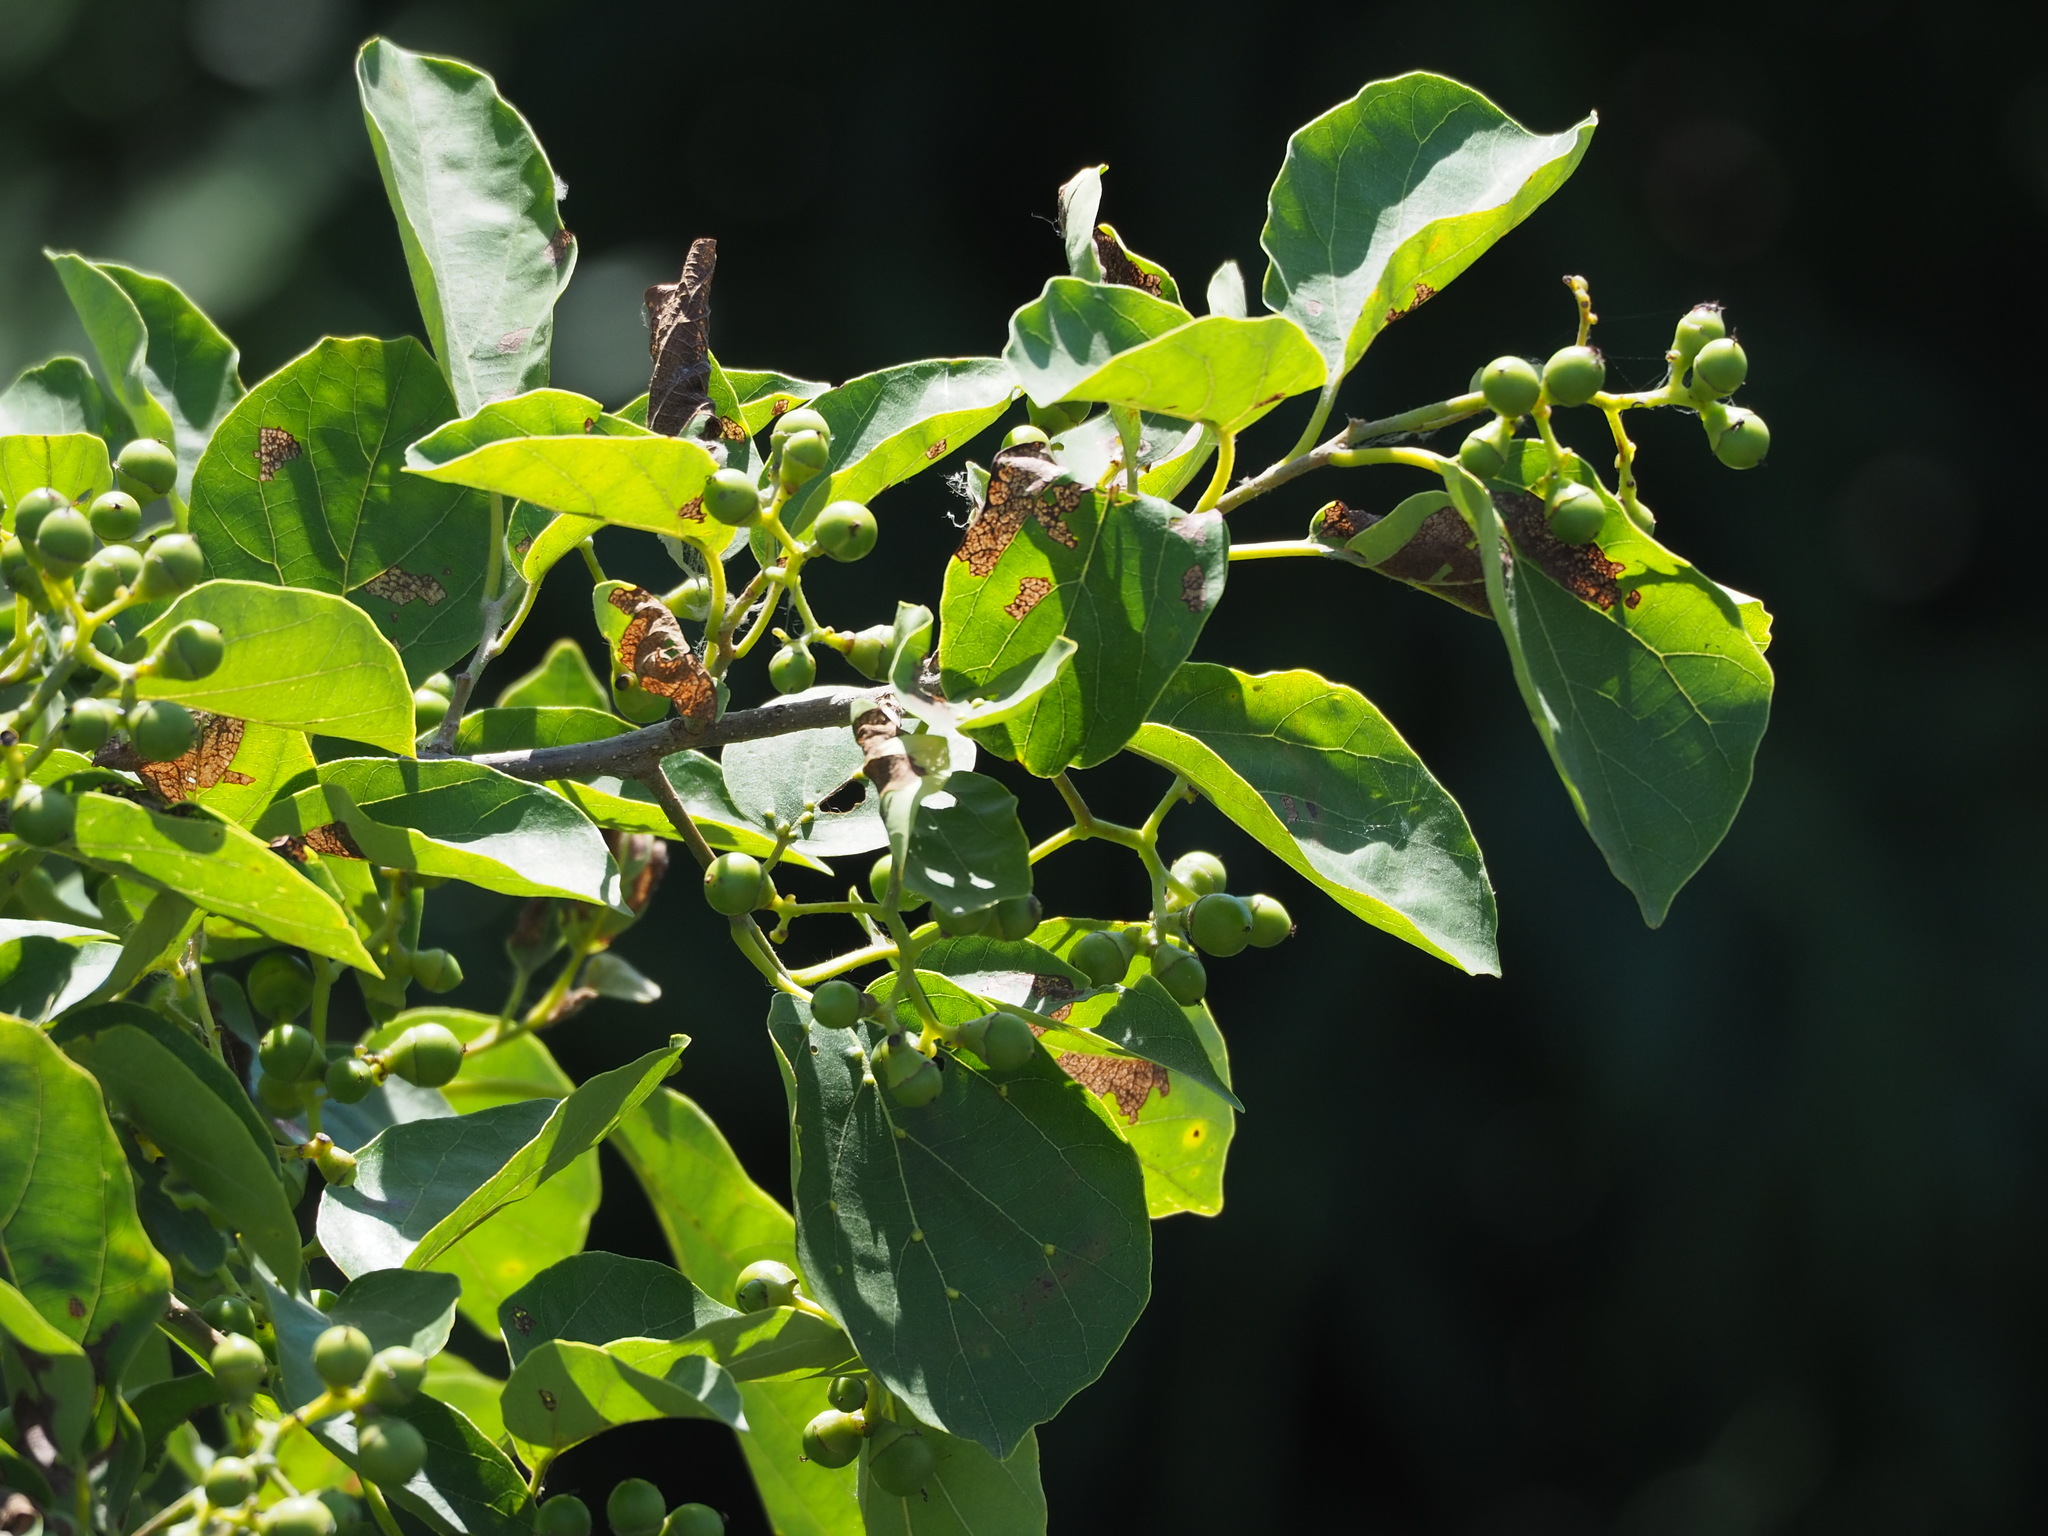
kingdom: Plantae
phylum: Tracheophyta
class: Magnoliopsida
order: Boraginales
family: Cordiaceae
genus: Cordia
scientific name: Cordia dichotoma
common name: Fragrant manjack
